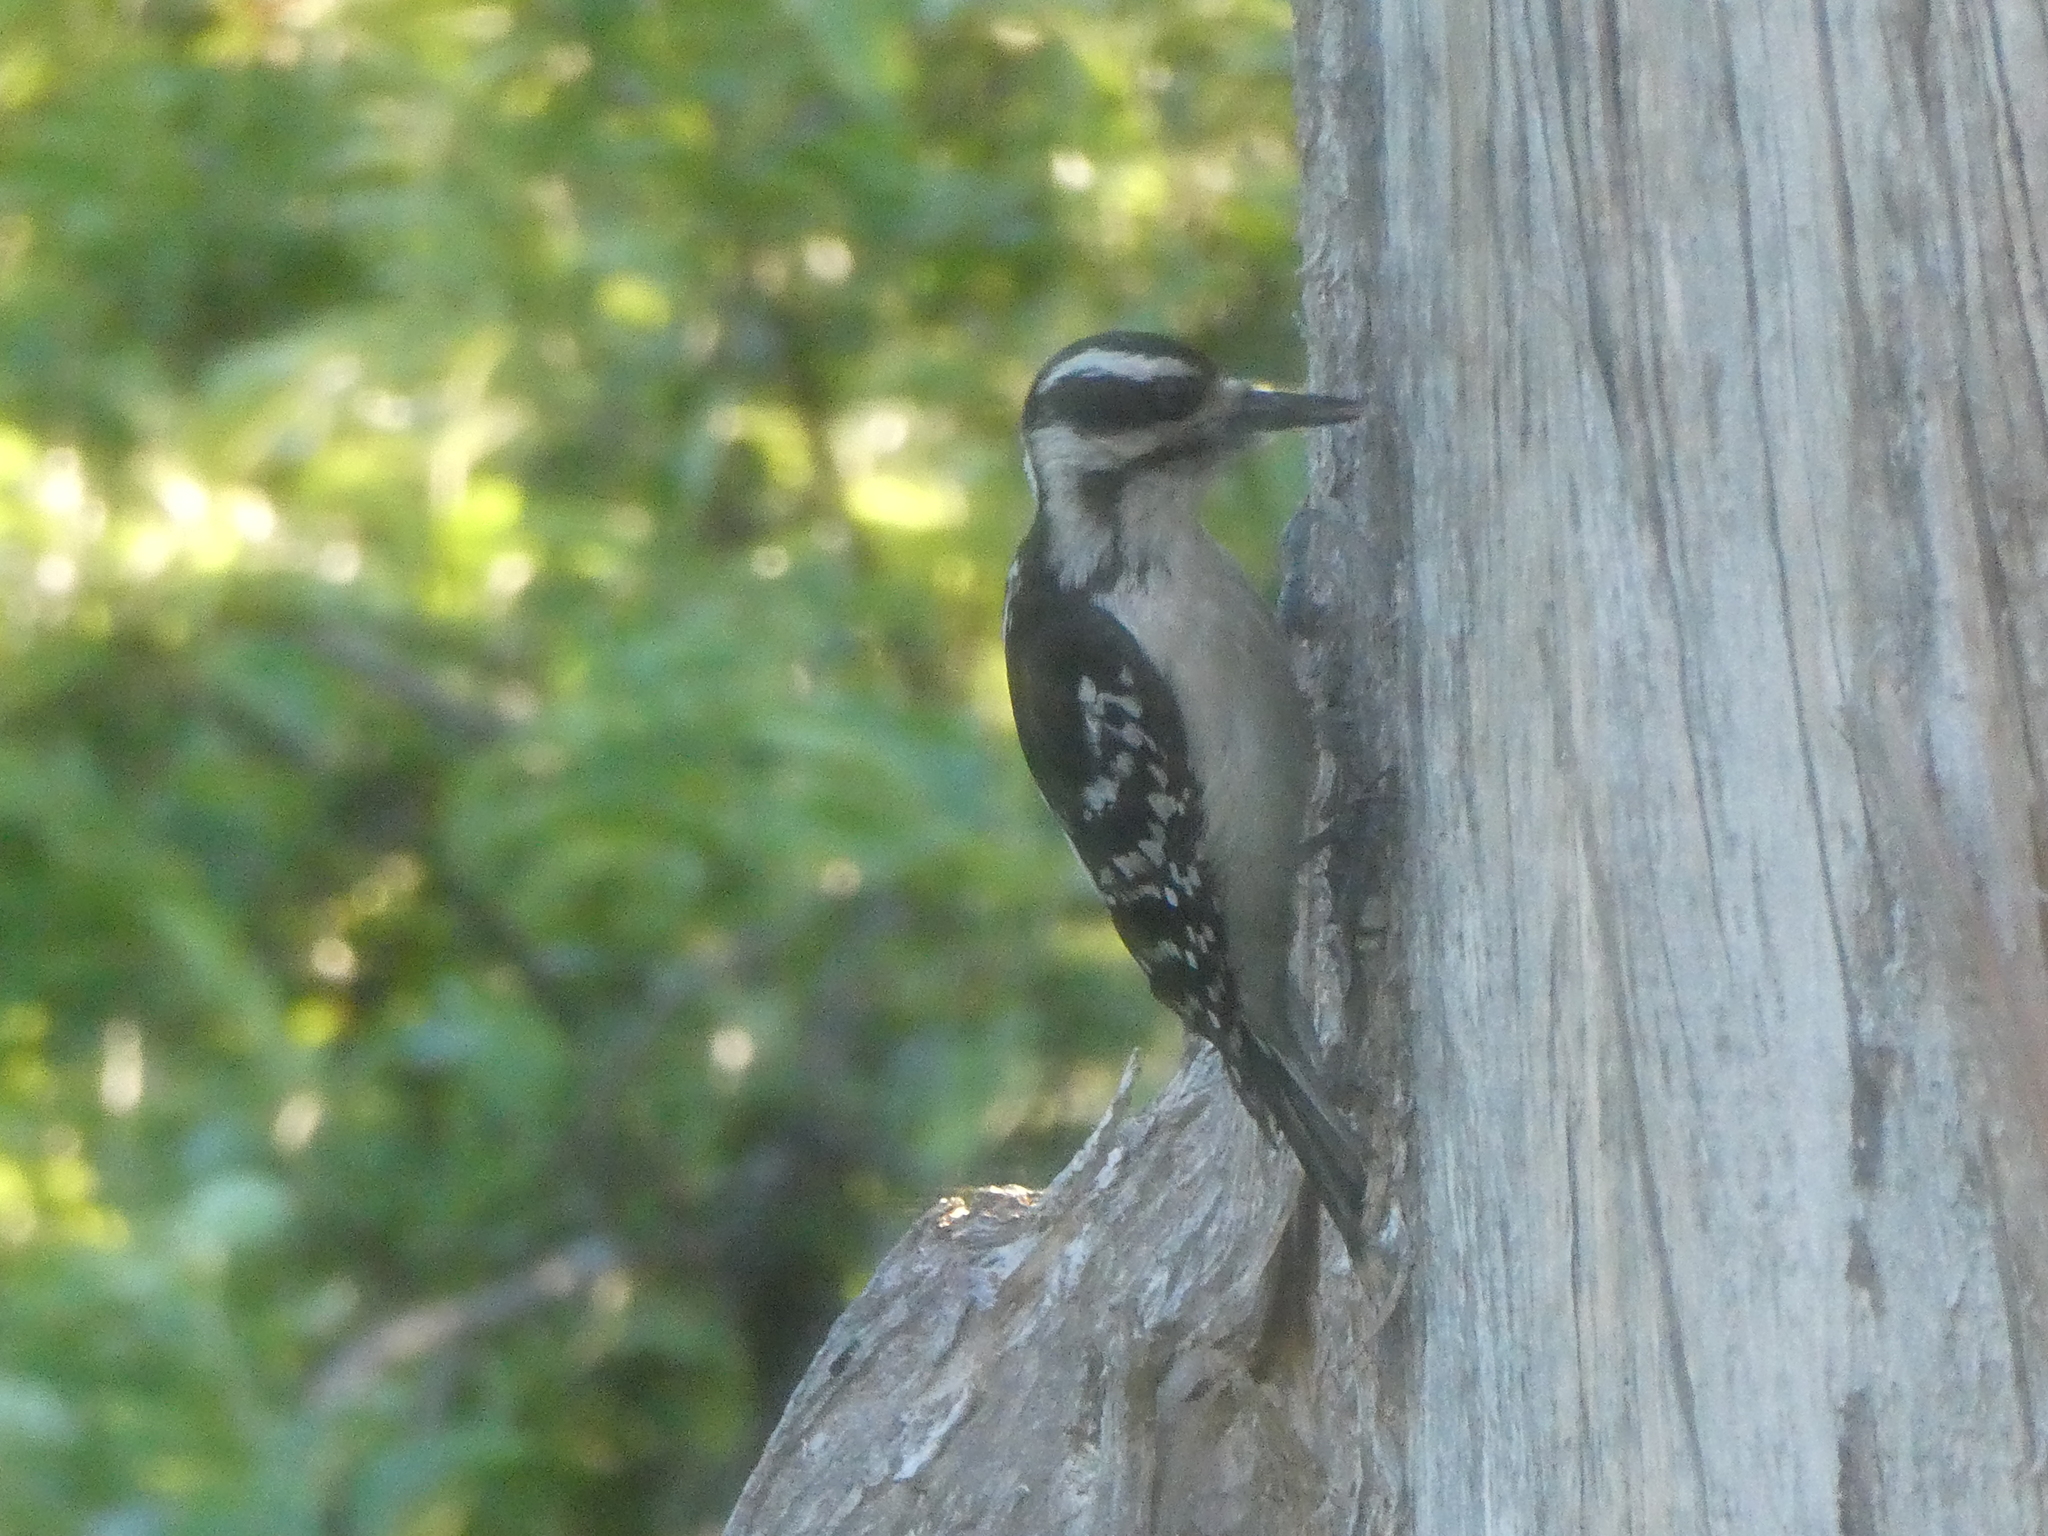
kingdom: Animalia
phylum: Chordata
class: Aves
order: Piciformes
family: Picidae
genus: Leuconotopicus
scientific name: Leuconotopicus villosus
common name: Hairy woodpecker
